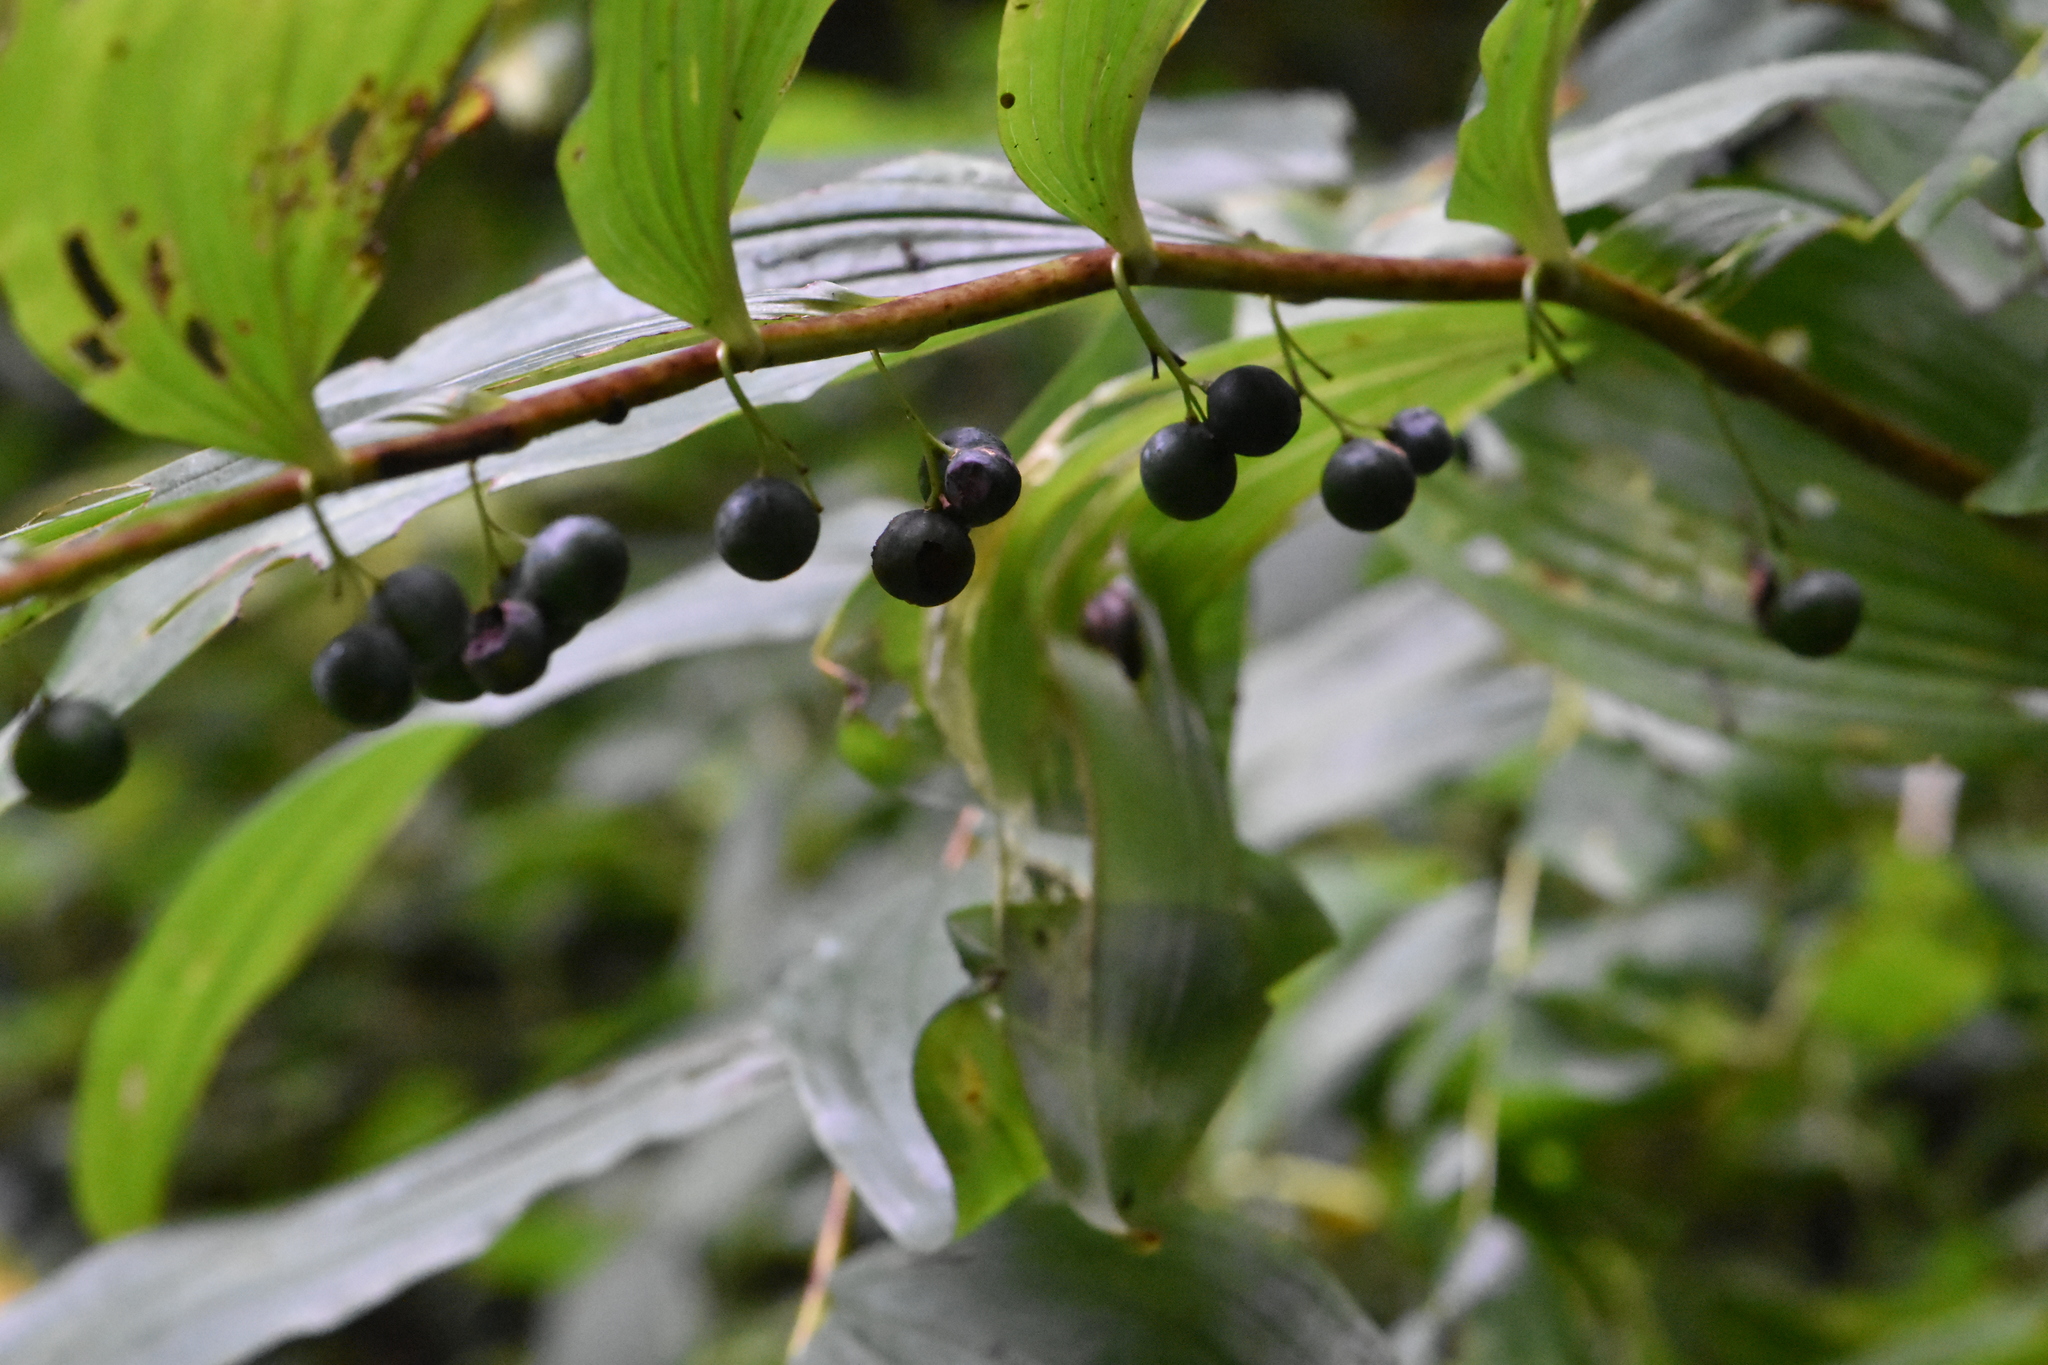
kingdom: Plantae
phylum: Tracheophyta
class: Liliopsida
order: Asparagales
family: Asparagaceae
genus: Polygonatum
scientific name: Polygonatum multiflorum
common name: Solomon's-seal
